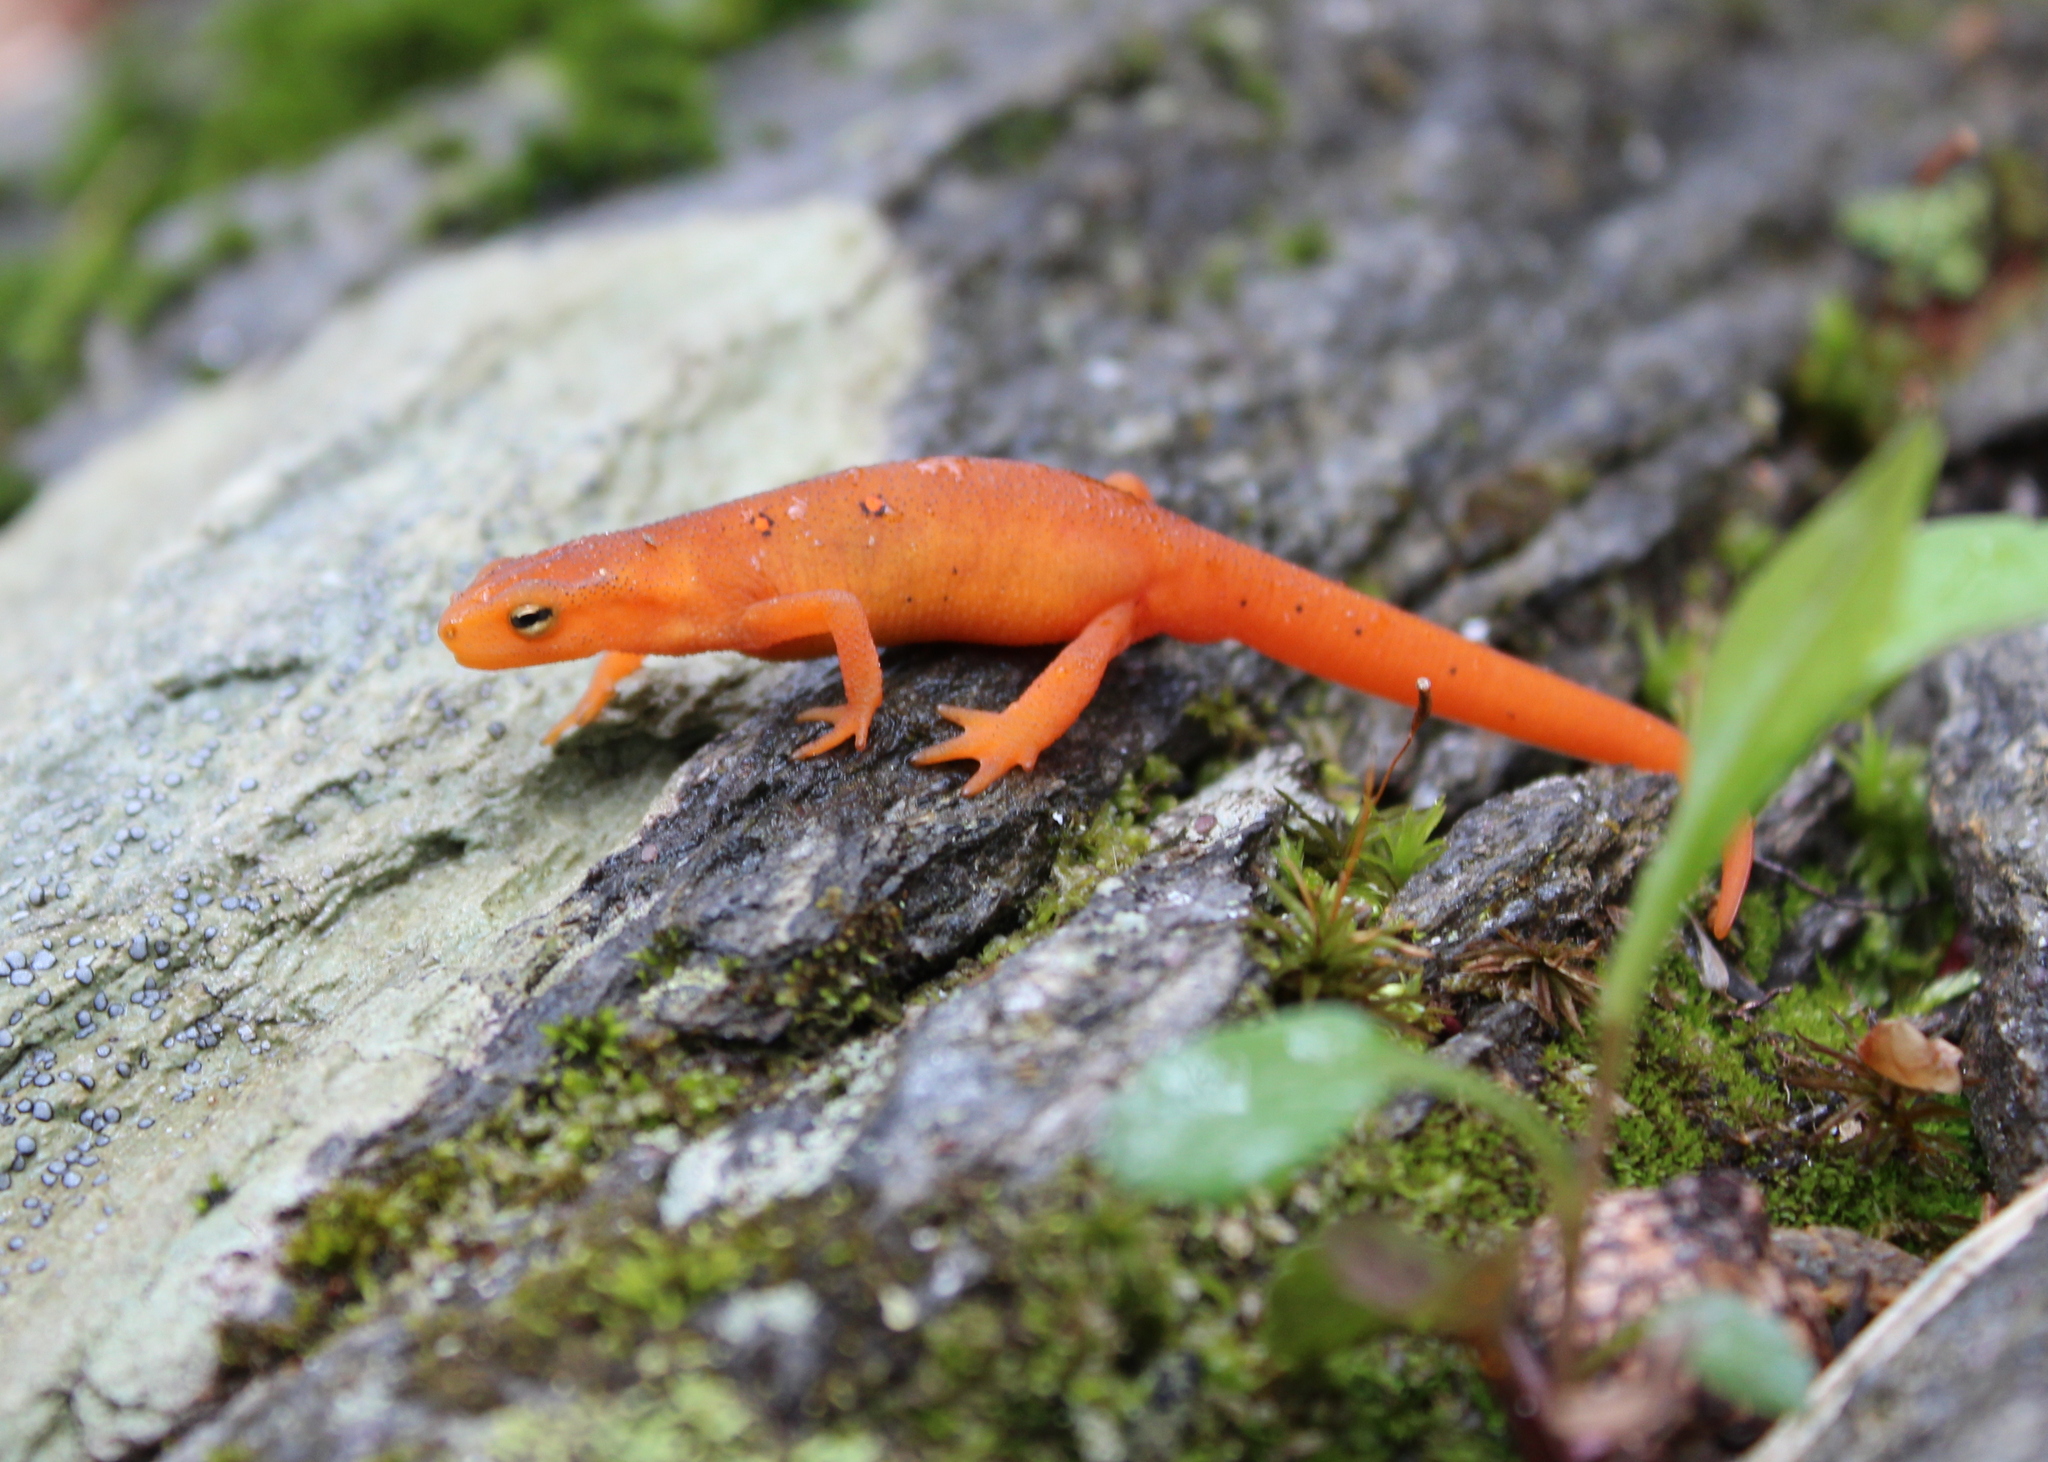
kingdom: Animalia
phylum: Chordata
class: Amphibia
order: Caudata
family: Salamandridae
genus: Notophthalmus
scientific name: Notophthalmus viridescens
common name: Eastern newt
